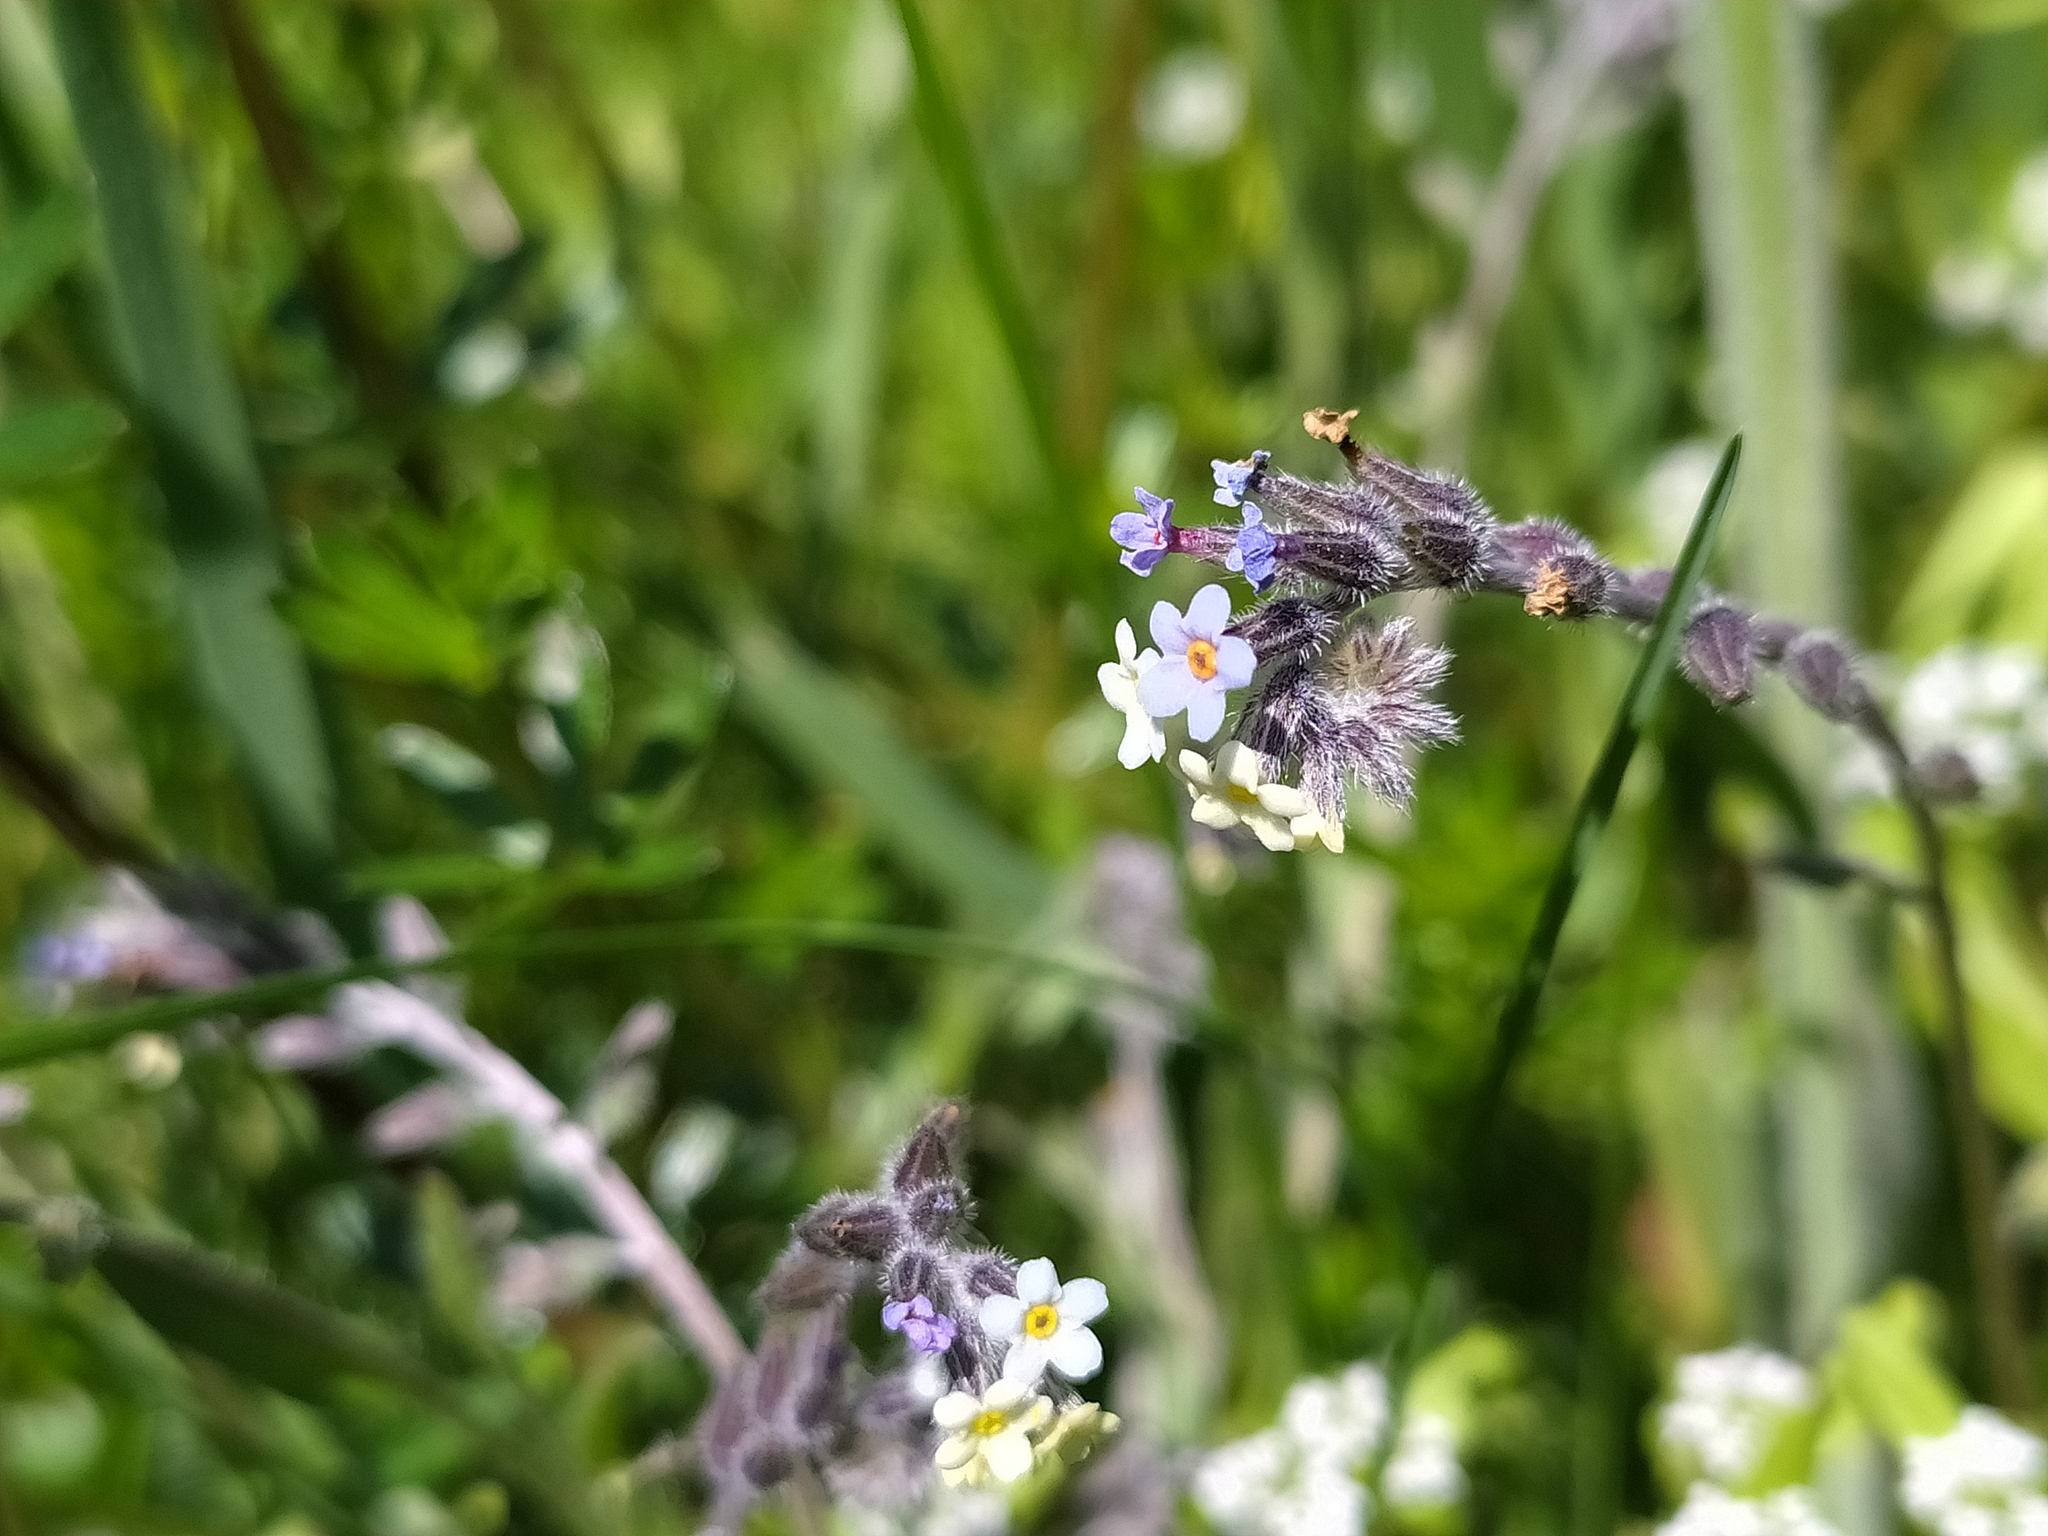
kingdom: Plantae
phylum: Tracheophyta
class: Magnoliopsida
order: Boraginales
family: Boraginaceae
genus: Myosotis
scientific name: Myosotis discolor
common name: Changing forget-me-not
